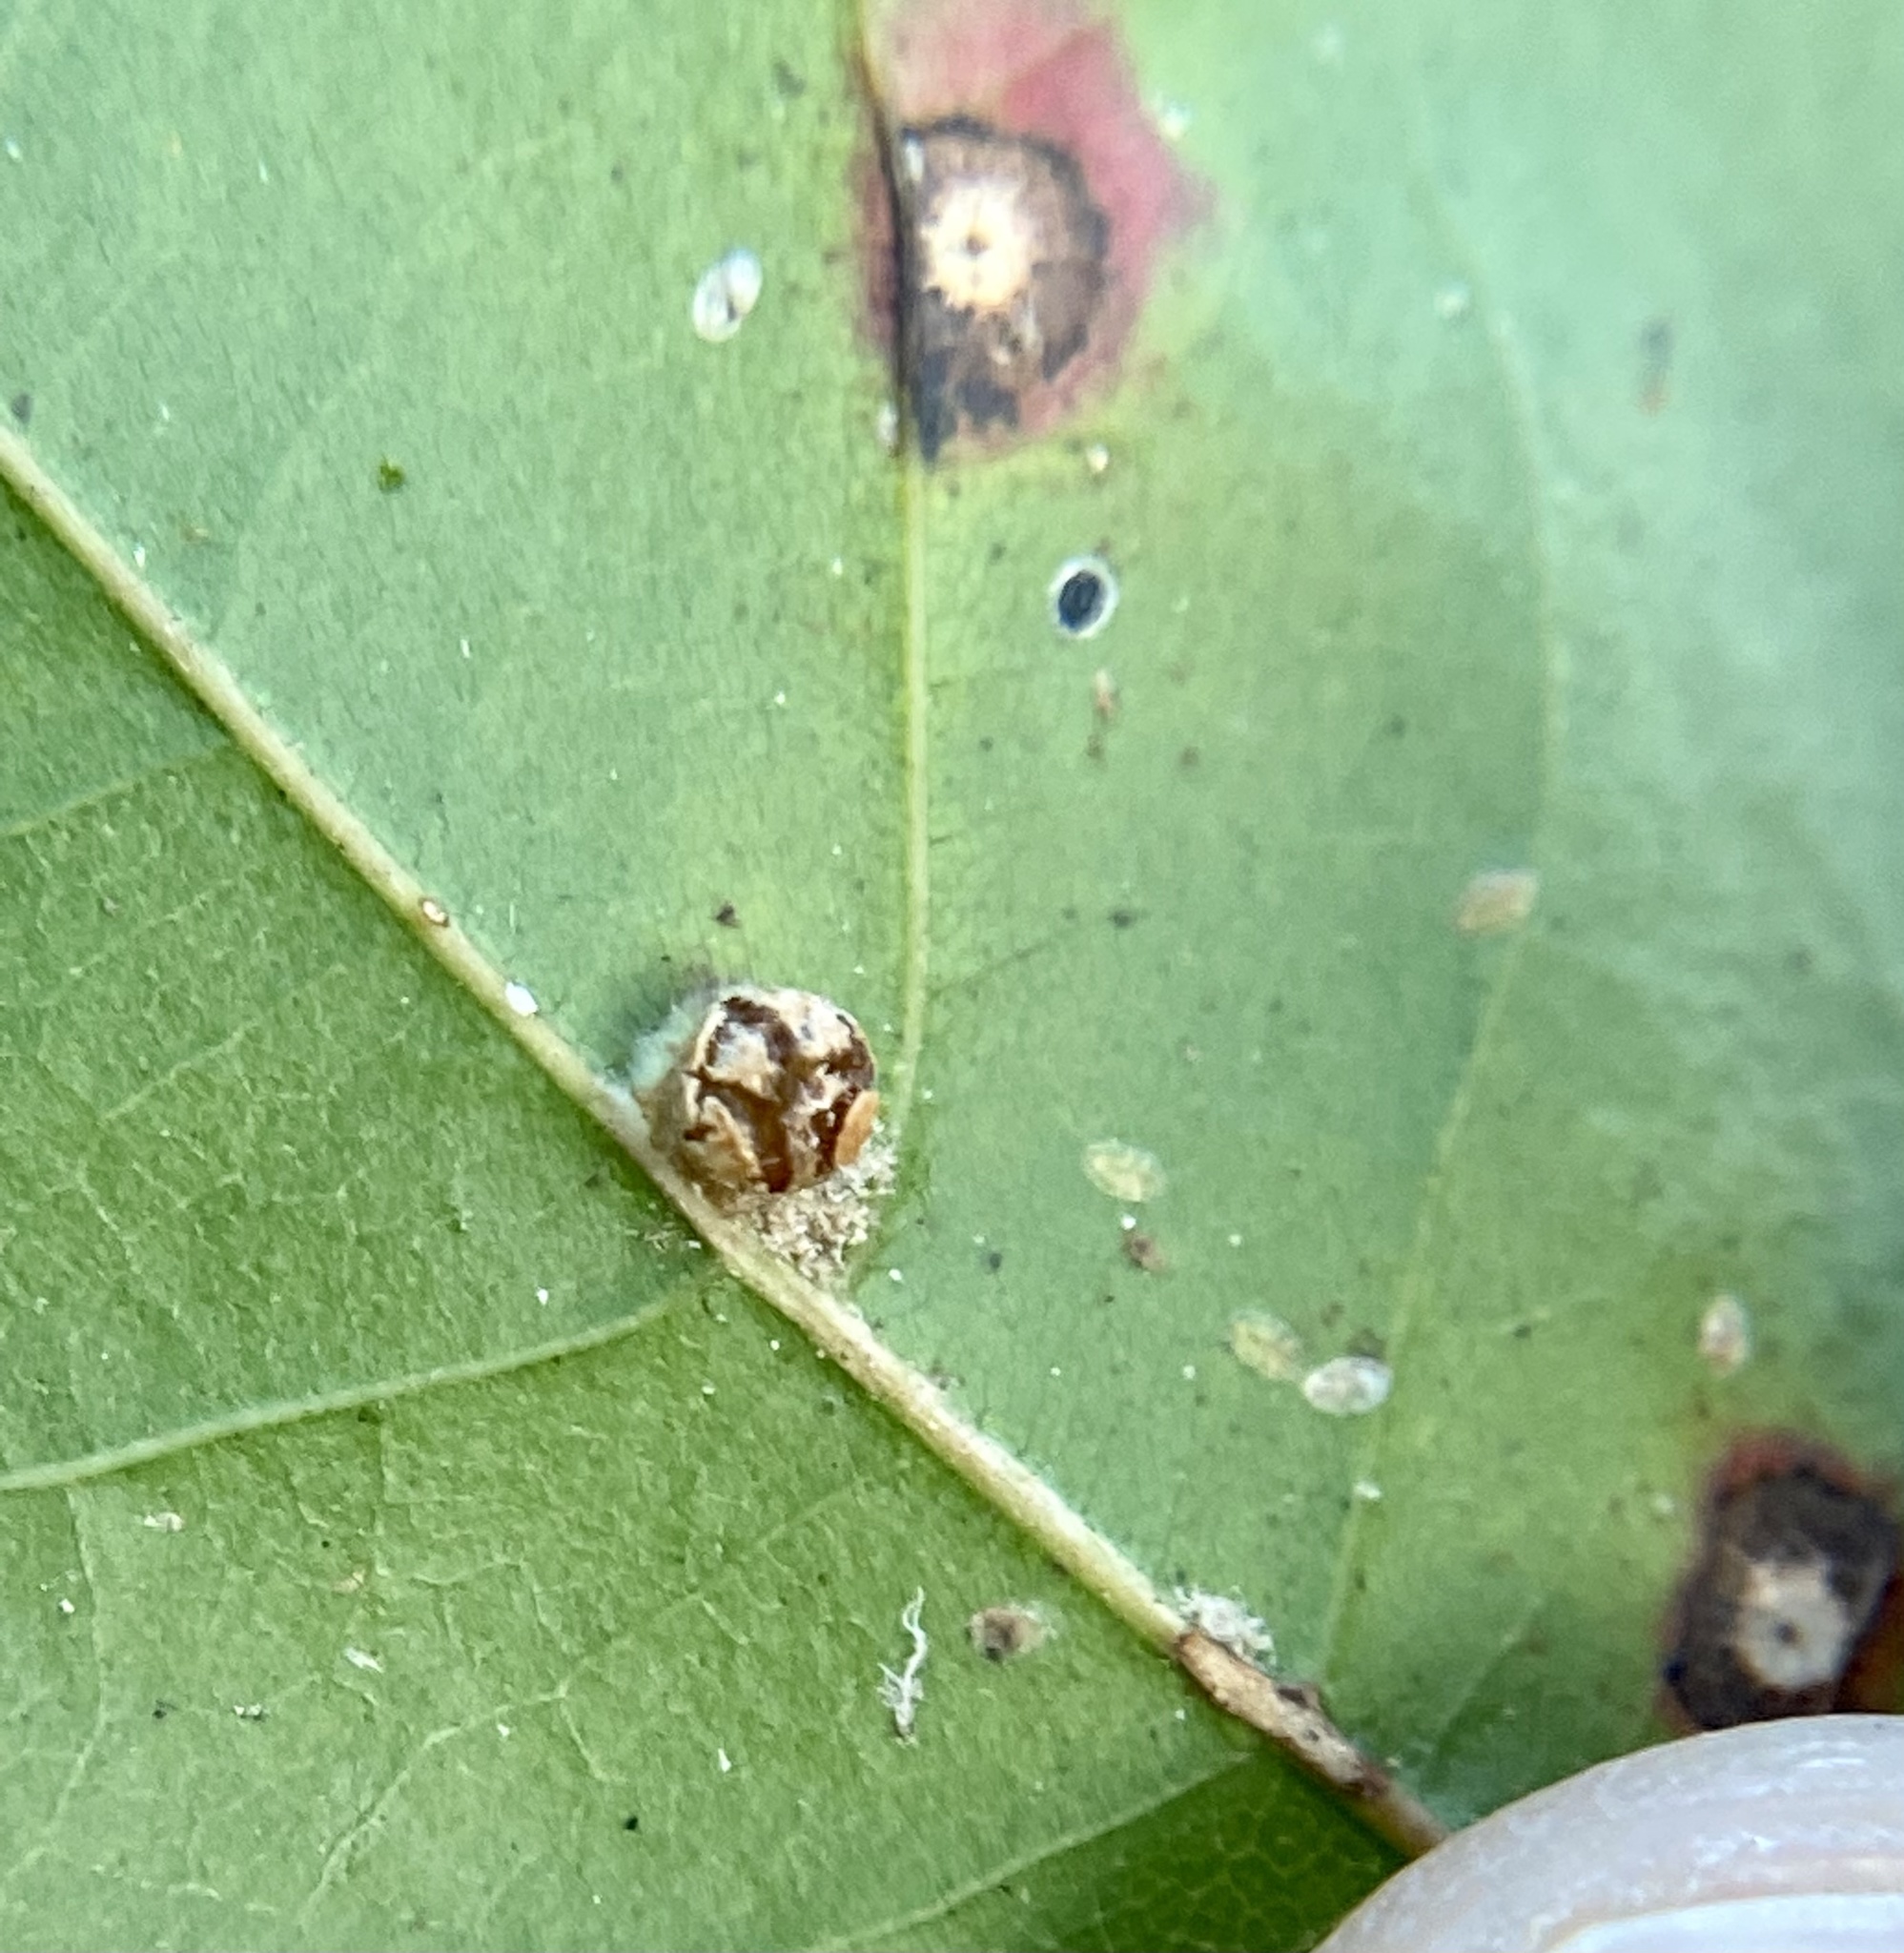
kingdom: Animalia
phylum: Arthropoda
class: Insecta
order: Diptera
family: Cecidomyiidae
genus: Polystepha
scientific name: Polystepha globosa
